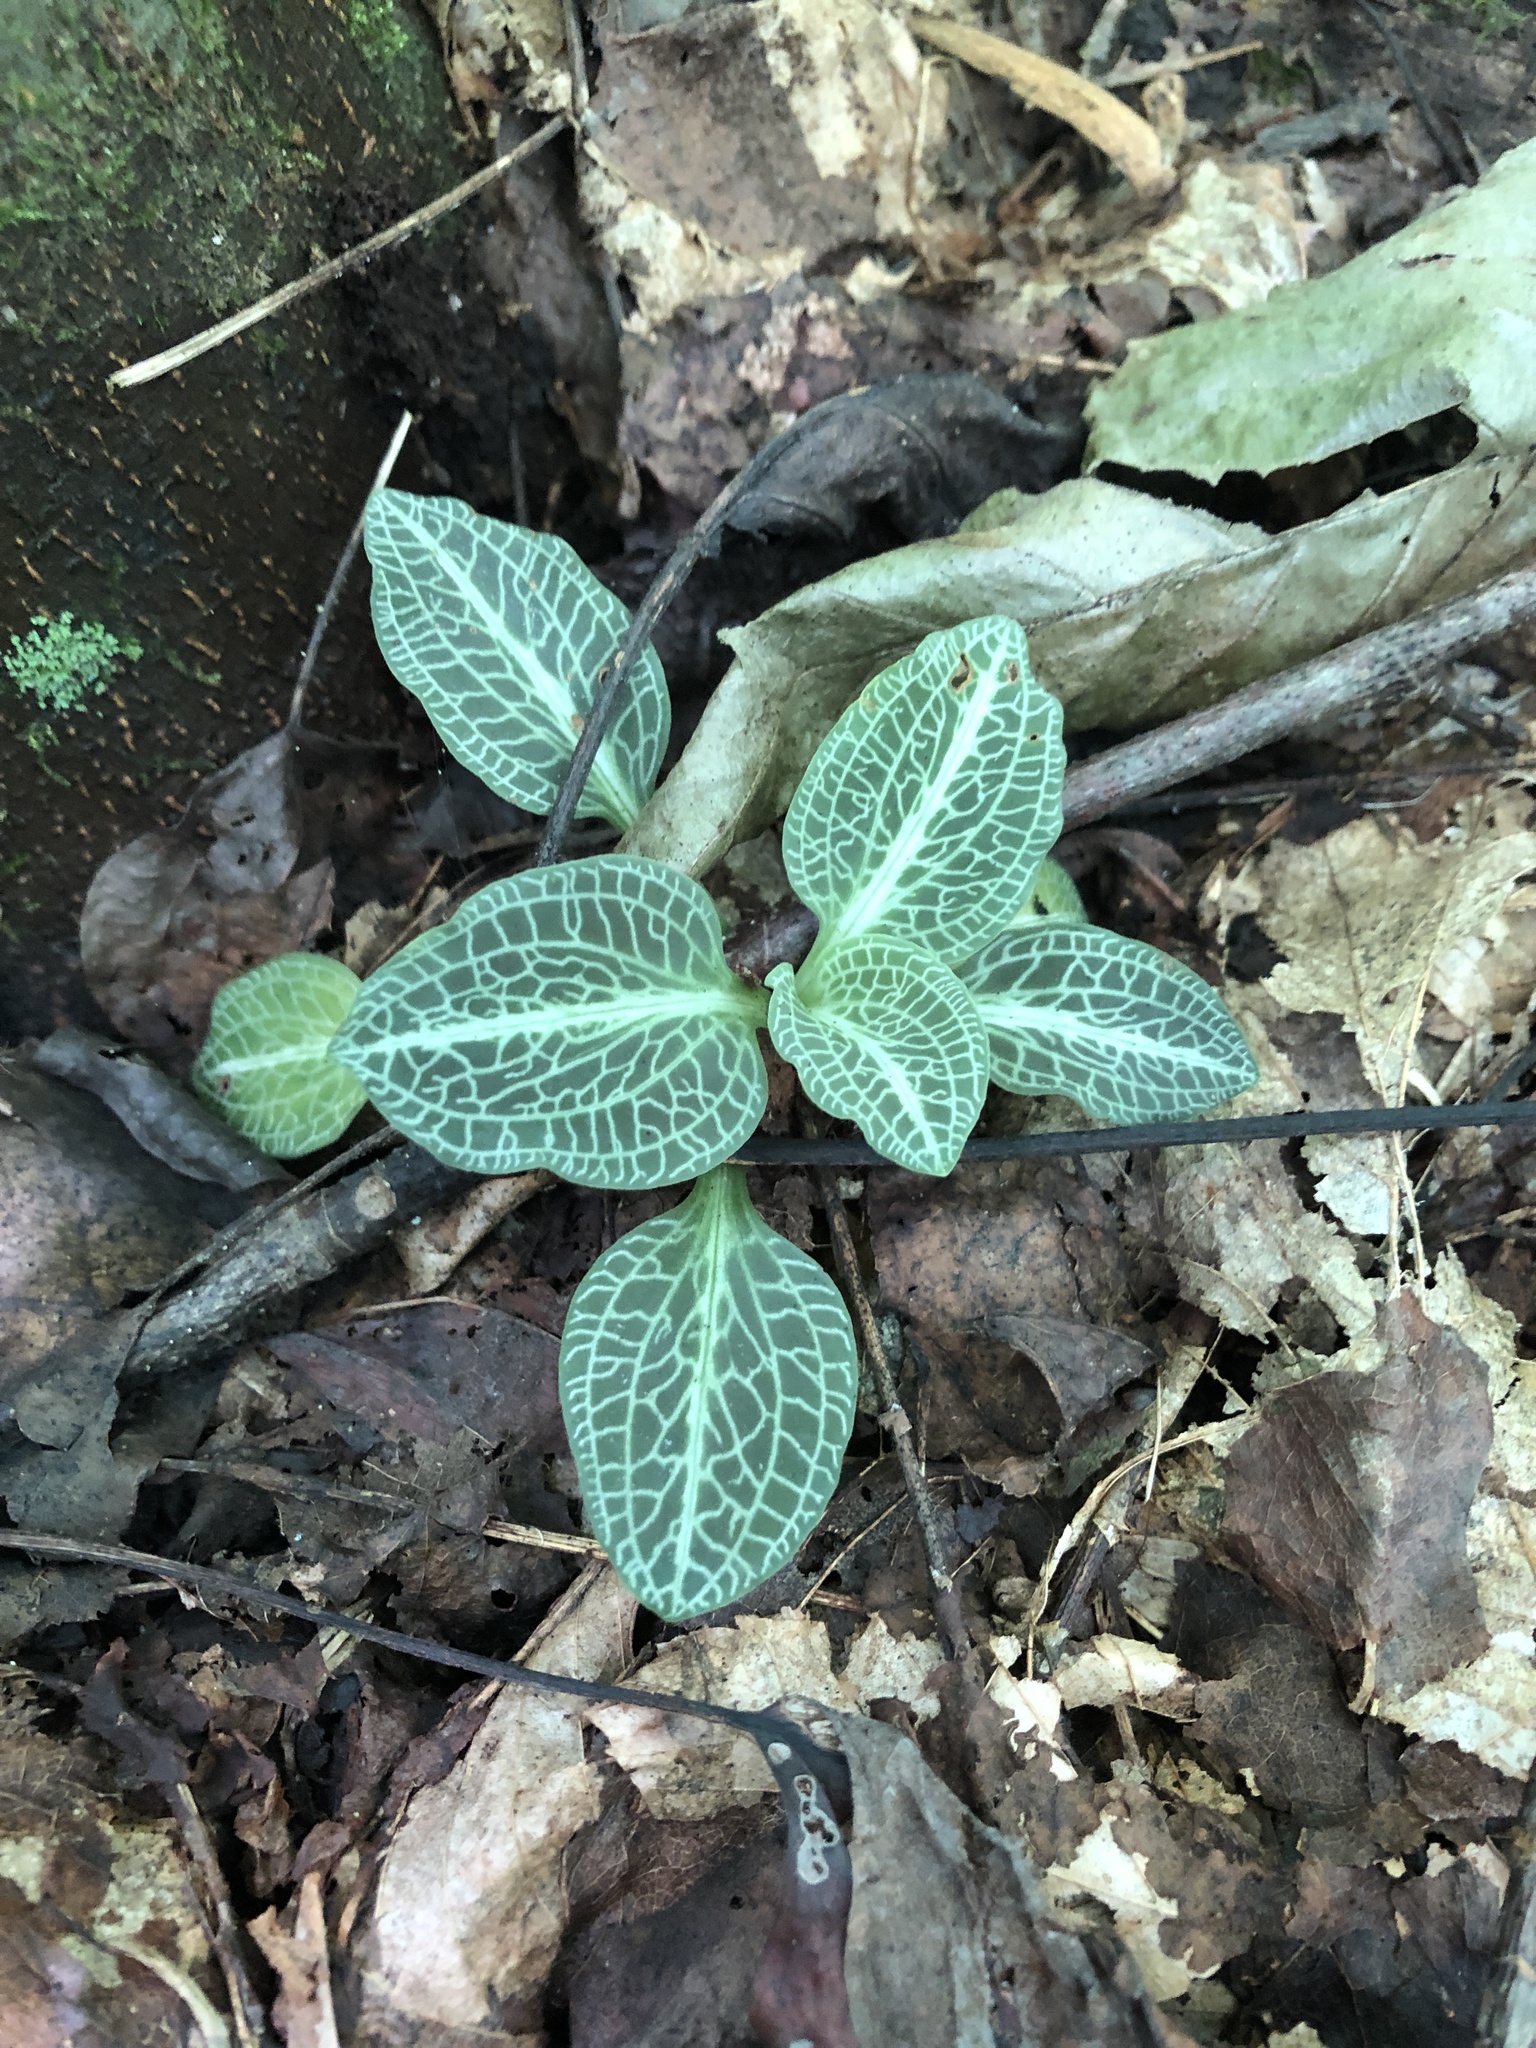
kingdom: Plantae
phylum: Tracheophyta
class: Liliopsida
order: Asparagales
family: Orchidaceae
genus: Goodyera
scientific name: Goodyera pubescens
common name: Downy rattlesnake-plantain
